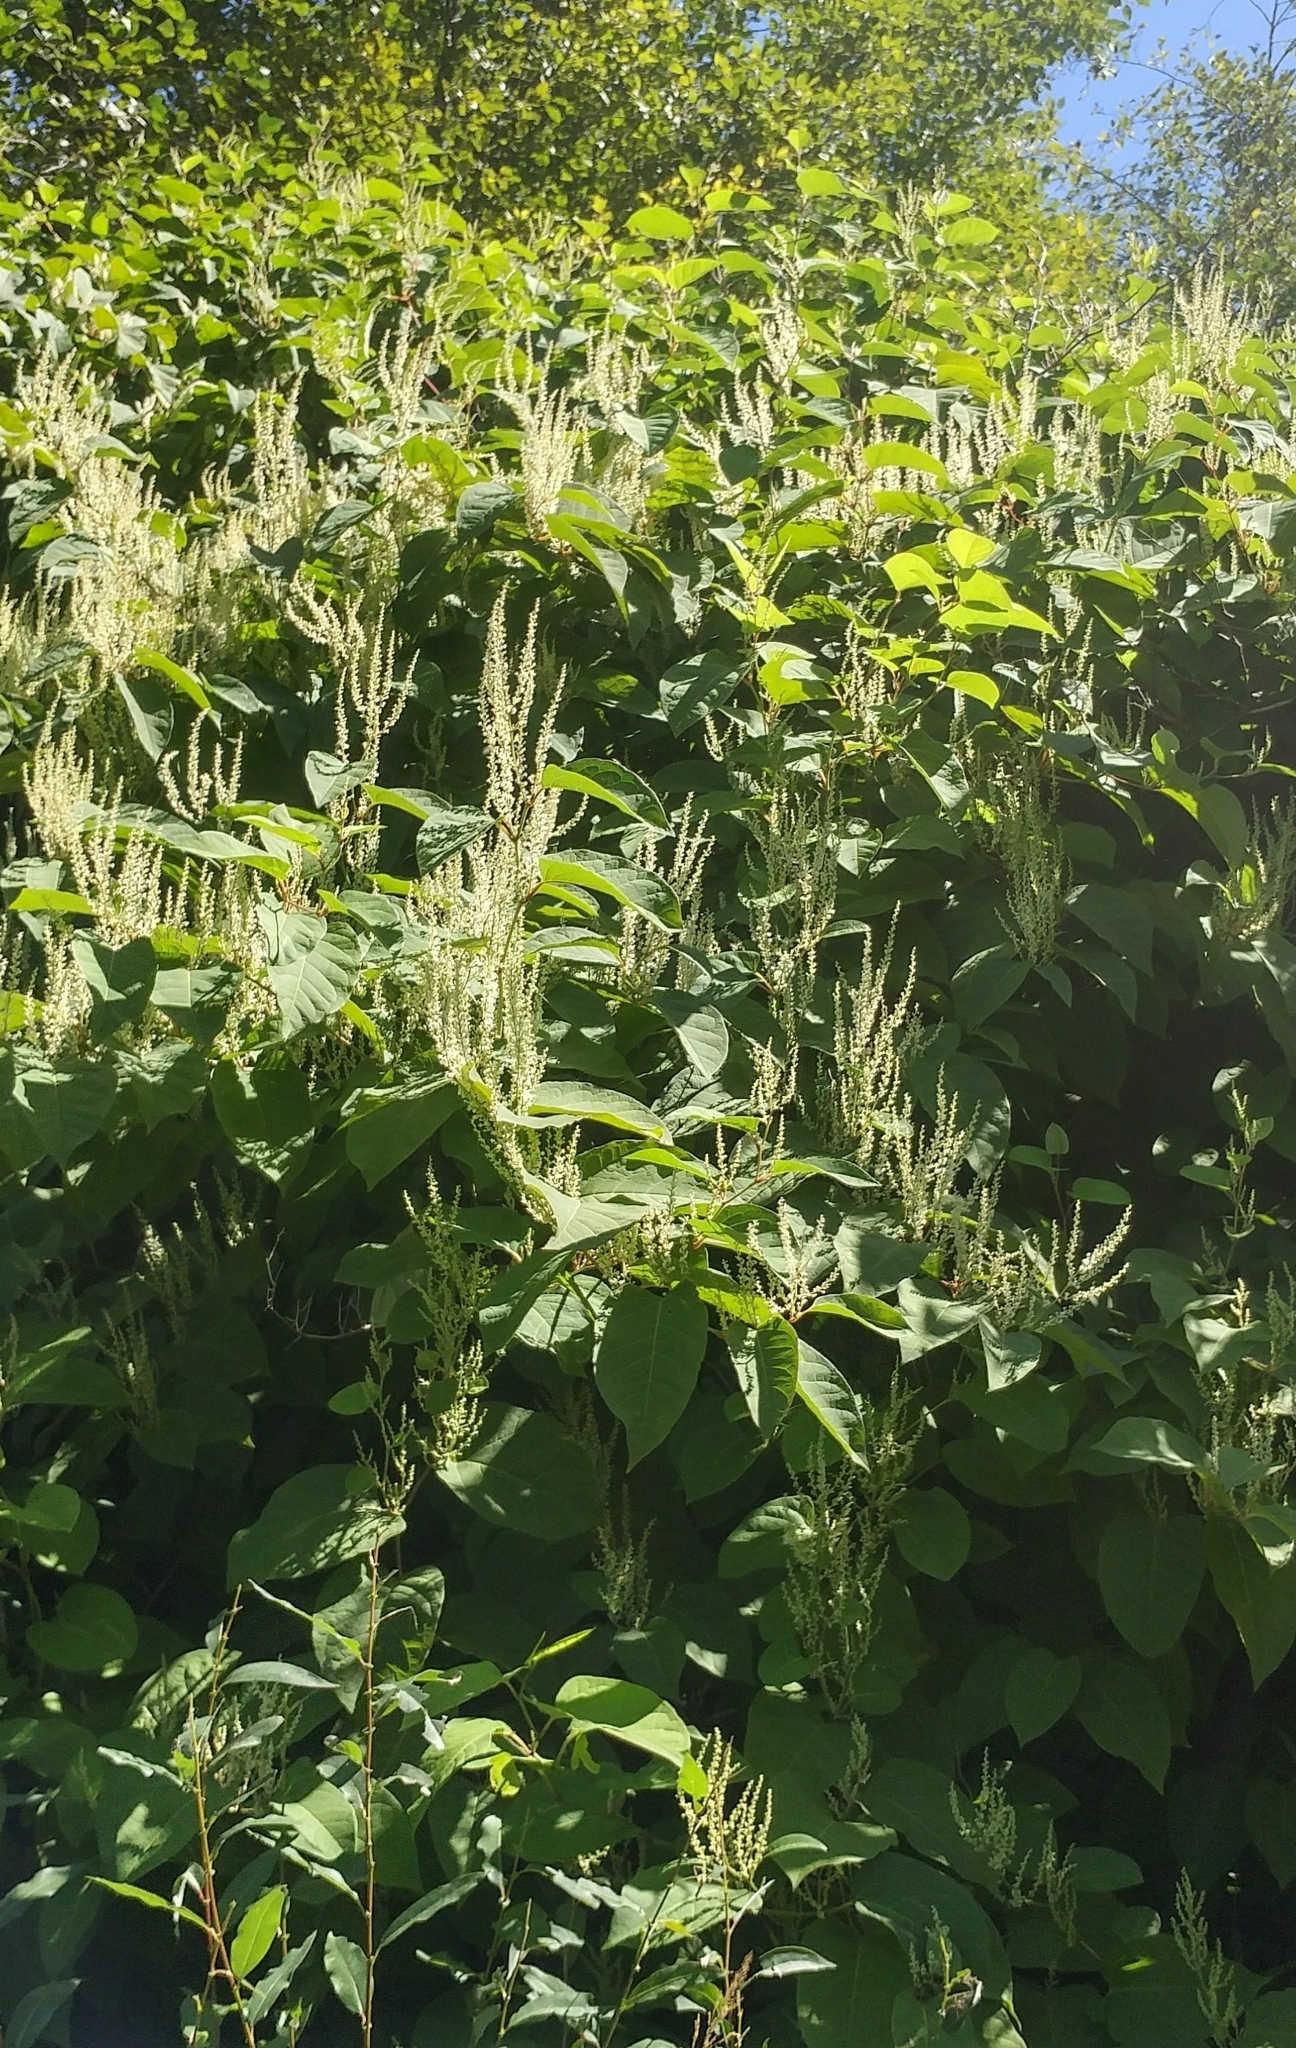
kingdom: Plantae
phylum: Tracheophyta
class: Magnoliopsida
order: Caryophyllales
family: Polygonaceae
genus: Reynoutria
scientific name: Reynoutria japonica
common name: Japanese knotweed
